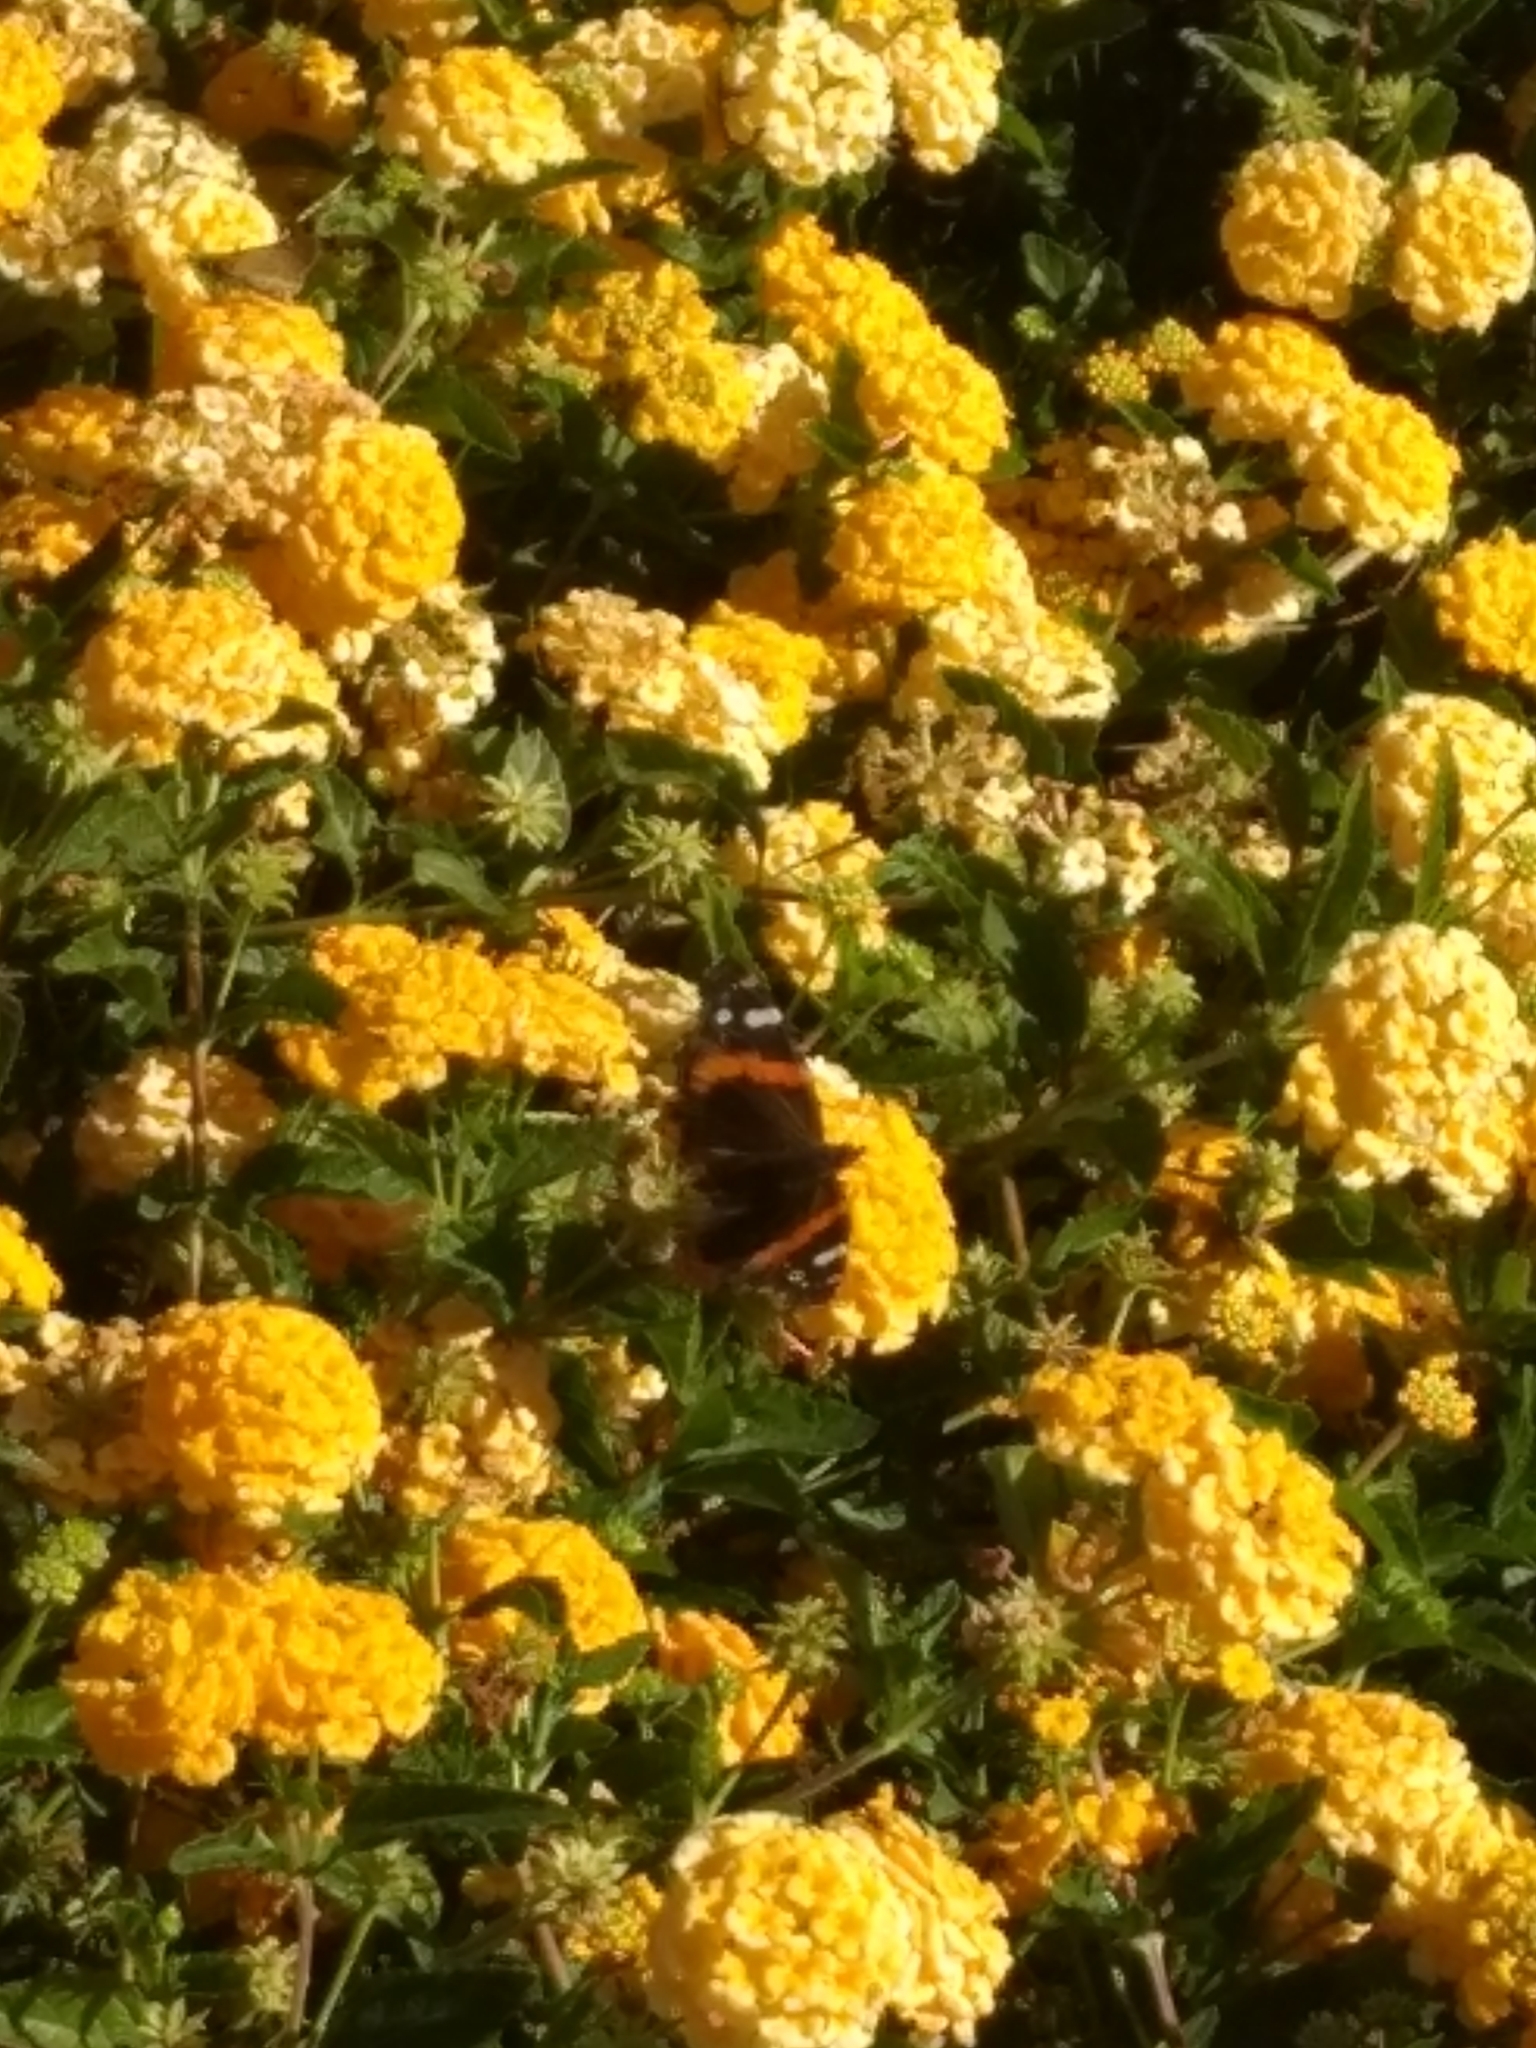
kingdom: Animalia
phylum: Arthropoda
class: Insecta
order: Lepidoptera
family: Nymphalidae
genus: Vanessa
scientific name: Vanessa atalanta
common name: Red admiral
